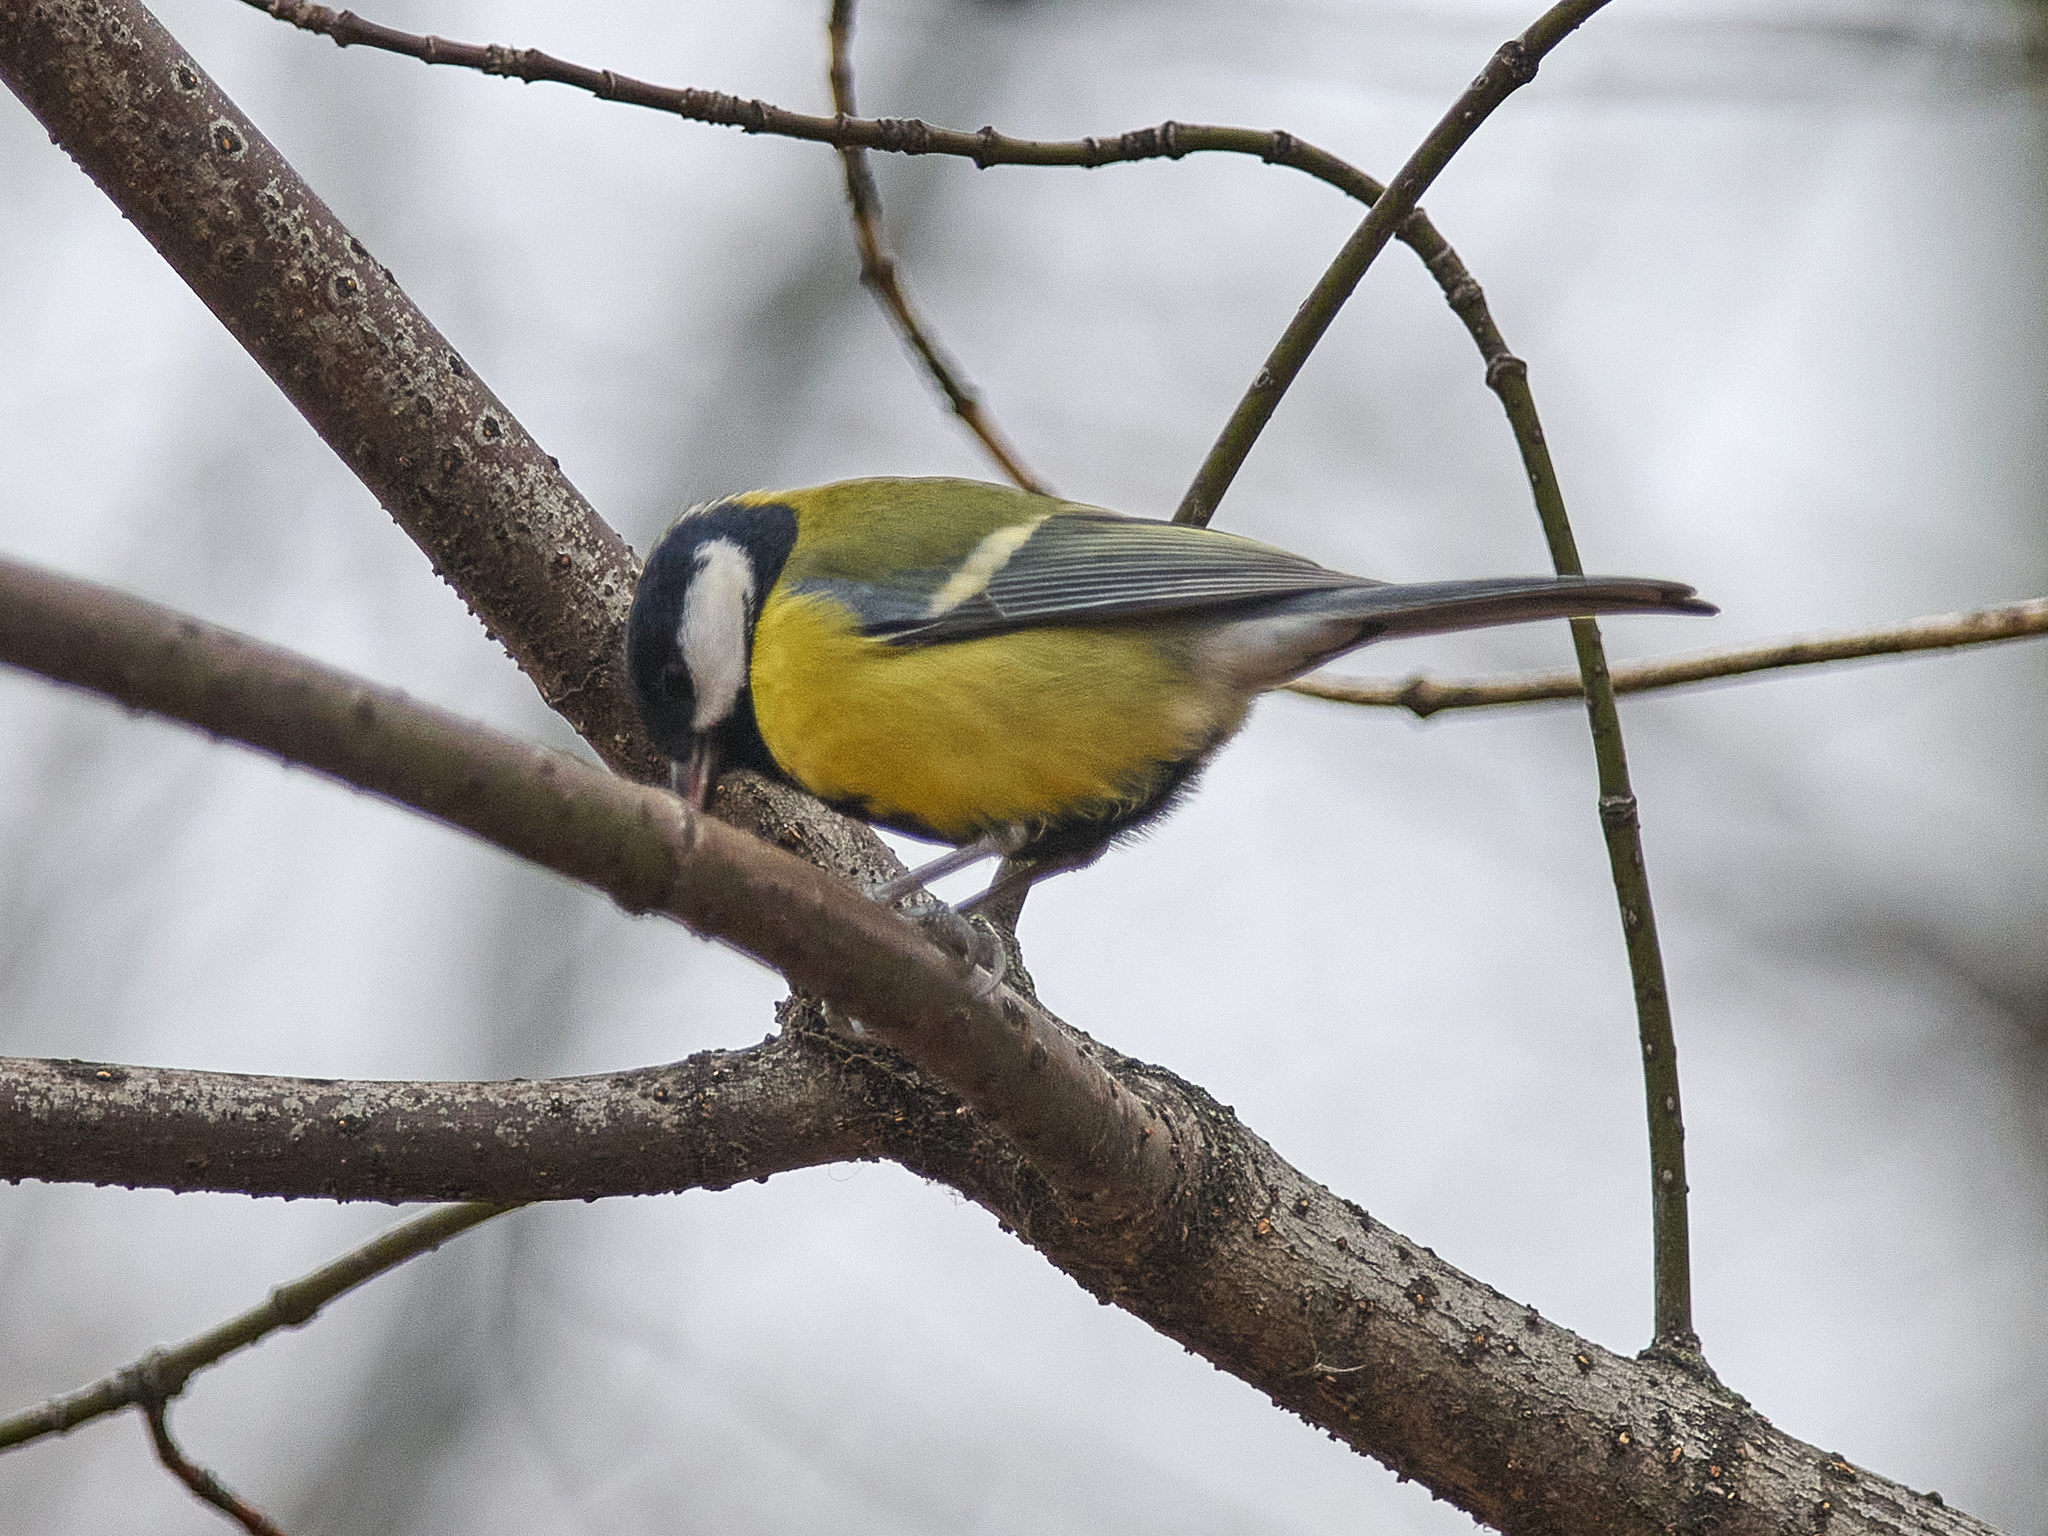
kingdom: Animalia
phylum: Chordata
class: Aves
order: Passeriformes
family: Paridae
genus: Parus
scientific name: Parus major
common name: Great tit
